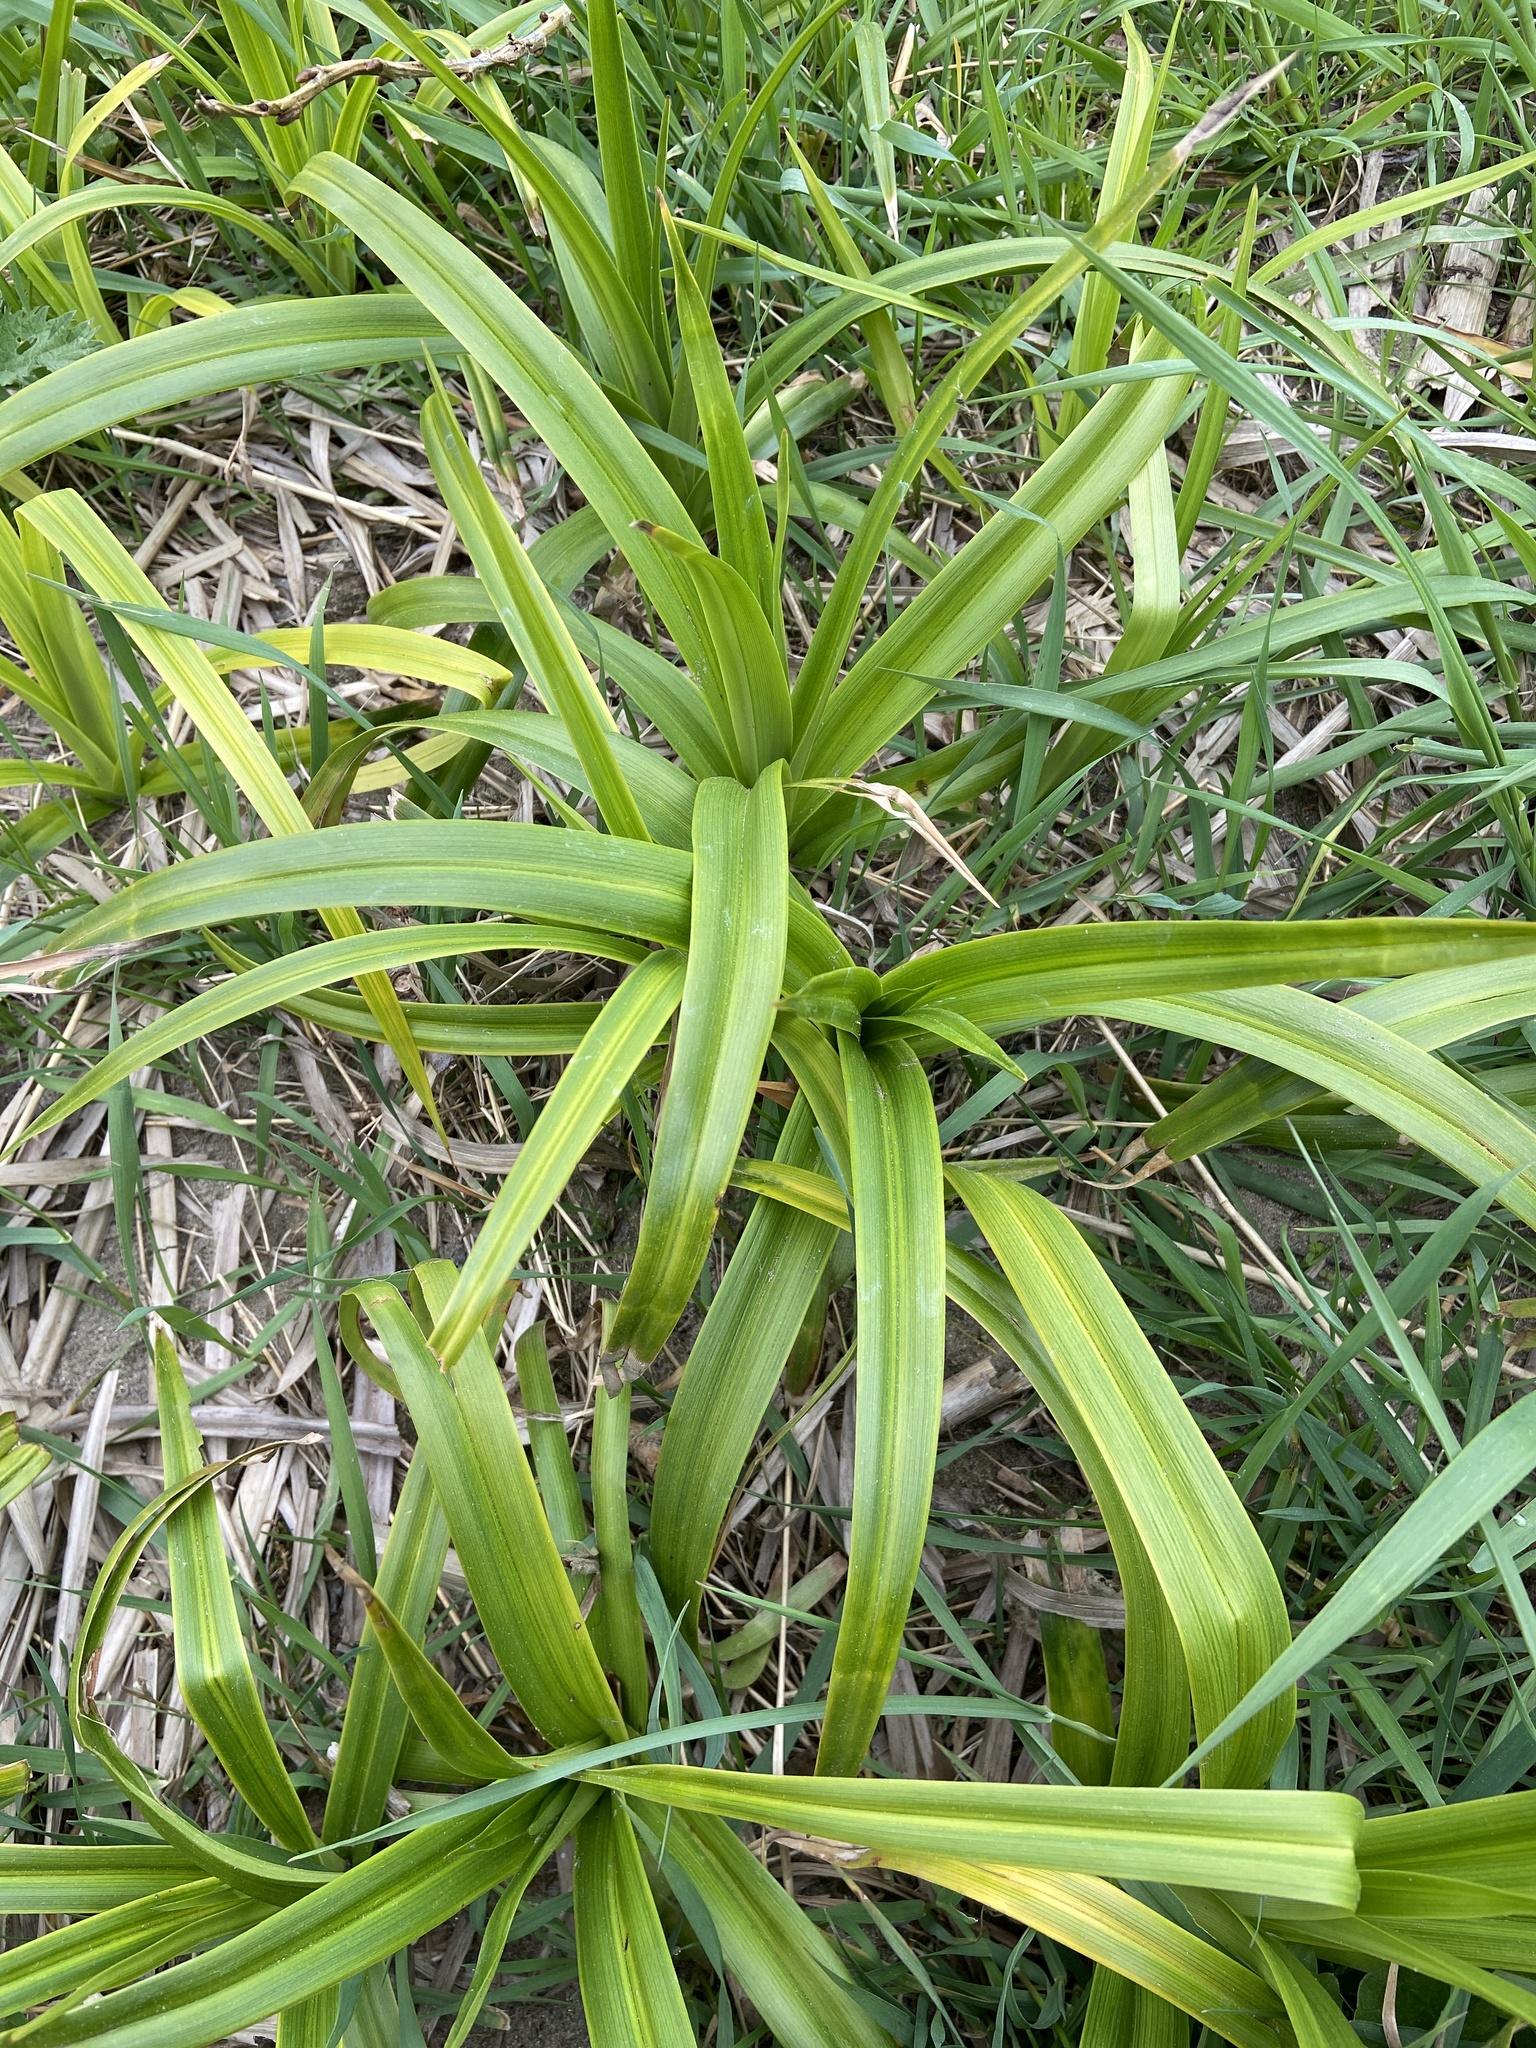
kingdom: Plantae
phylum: Tracheophyta
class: Liliopsida
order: Poales
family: Cyperaceae
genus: Scirpus
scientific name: Scirpus sylvaticus
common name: Wood club-rush
